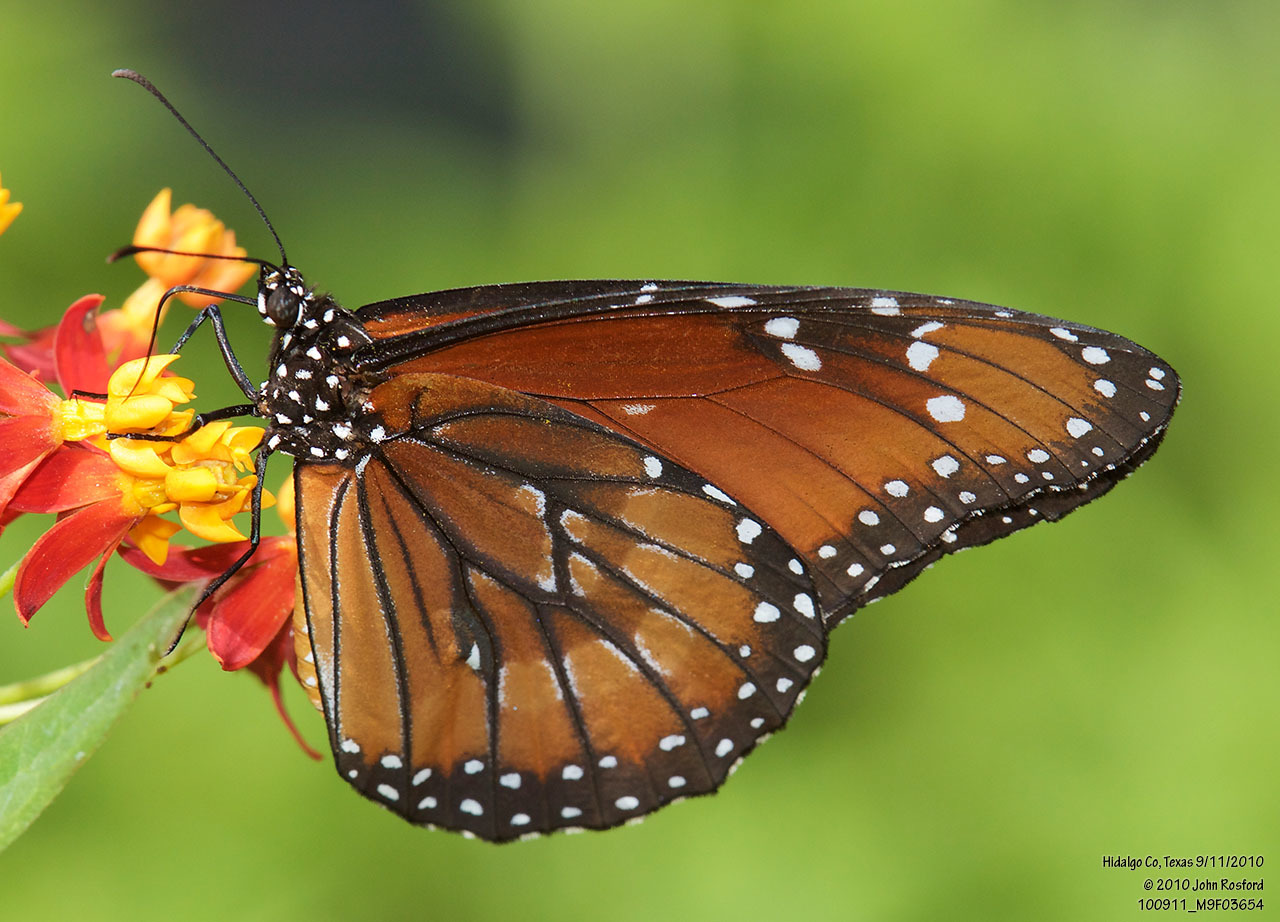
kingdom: Animalia
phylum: Arthropoda
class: Insecta
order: Lepidoptera
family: Nymphalidae
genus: Danaus
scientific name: Danaus eresimus
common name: Soldier
